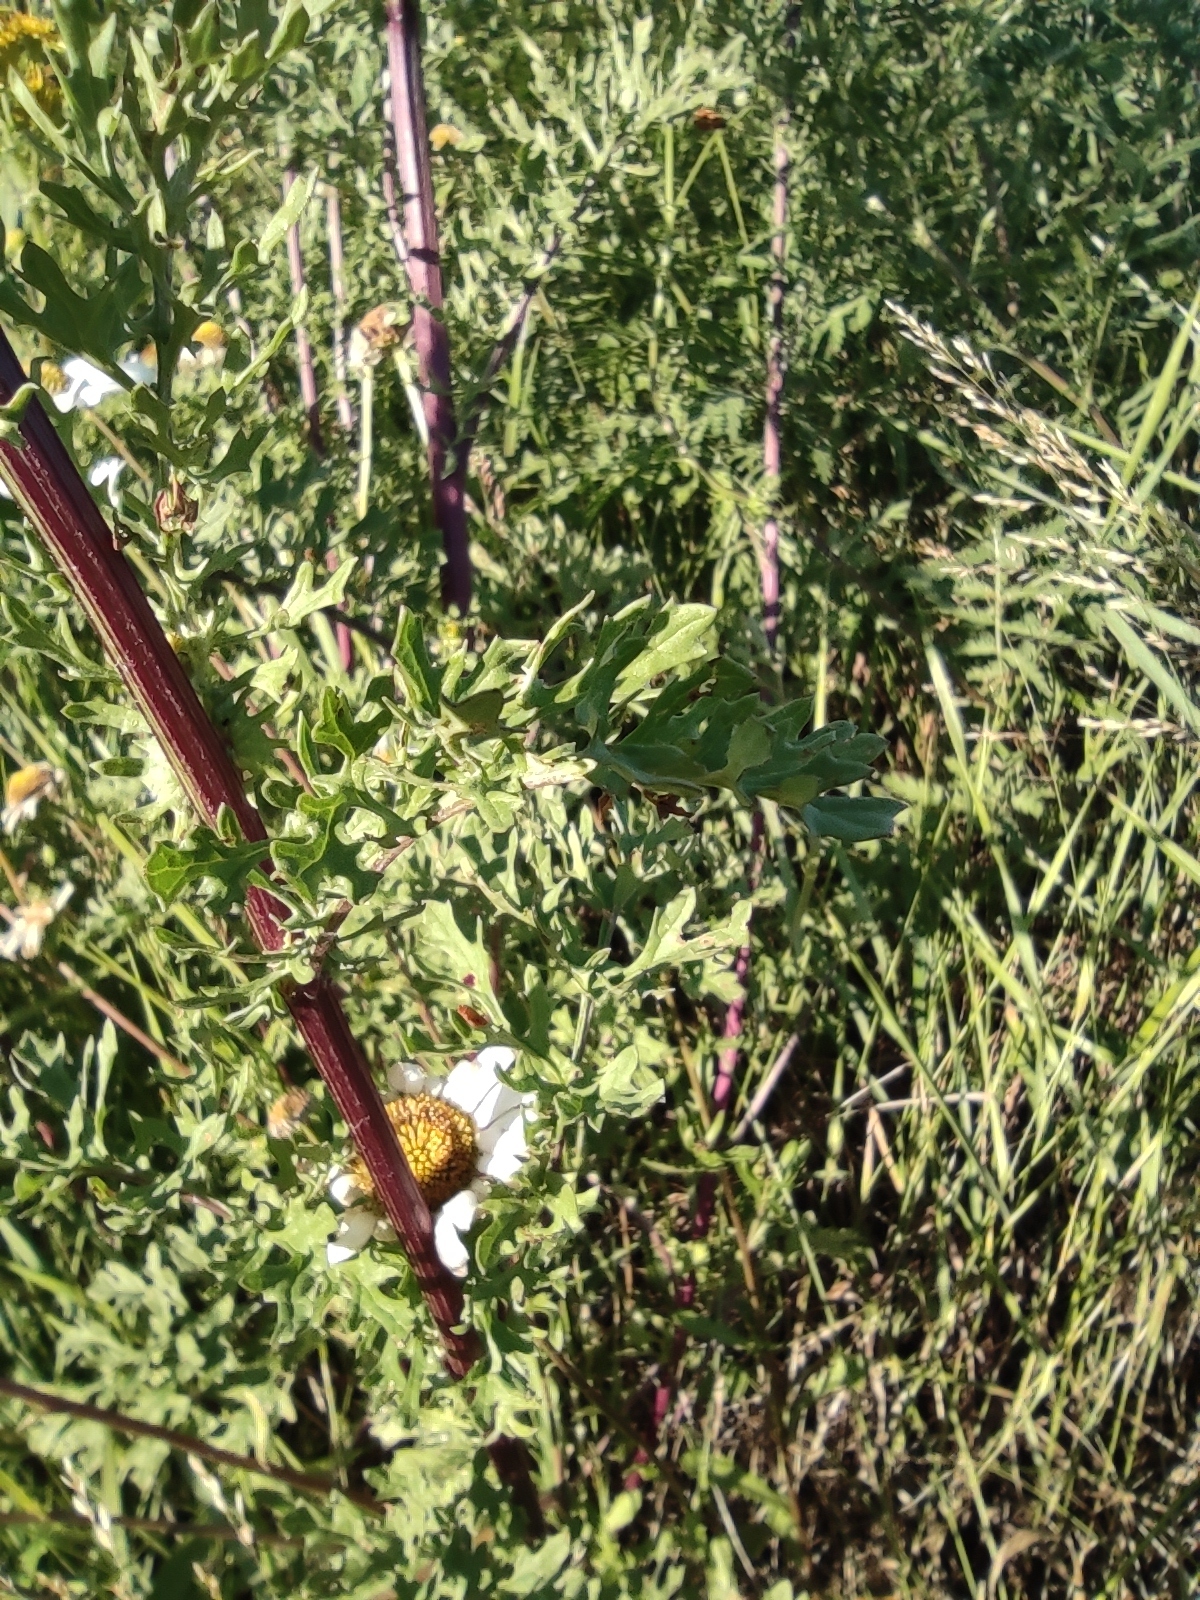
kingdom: Plantae
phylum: Tracheophyta
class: Magnoliopsida
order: Asterales
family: Asteraceae
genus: Jacobaea
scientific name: Jacobaea vulgaris
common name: Stinking willie
